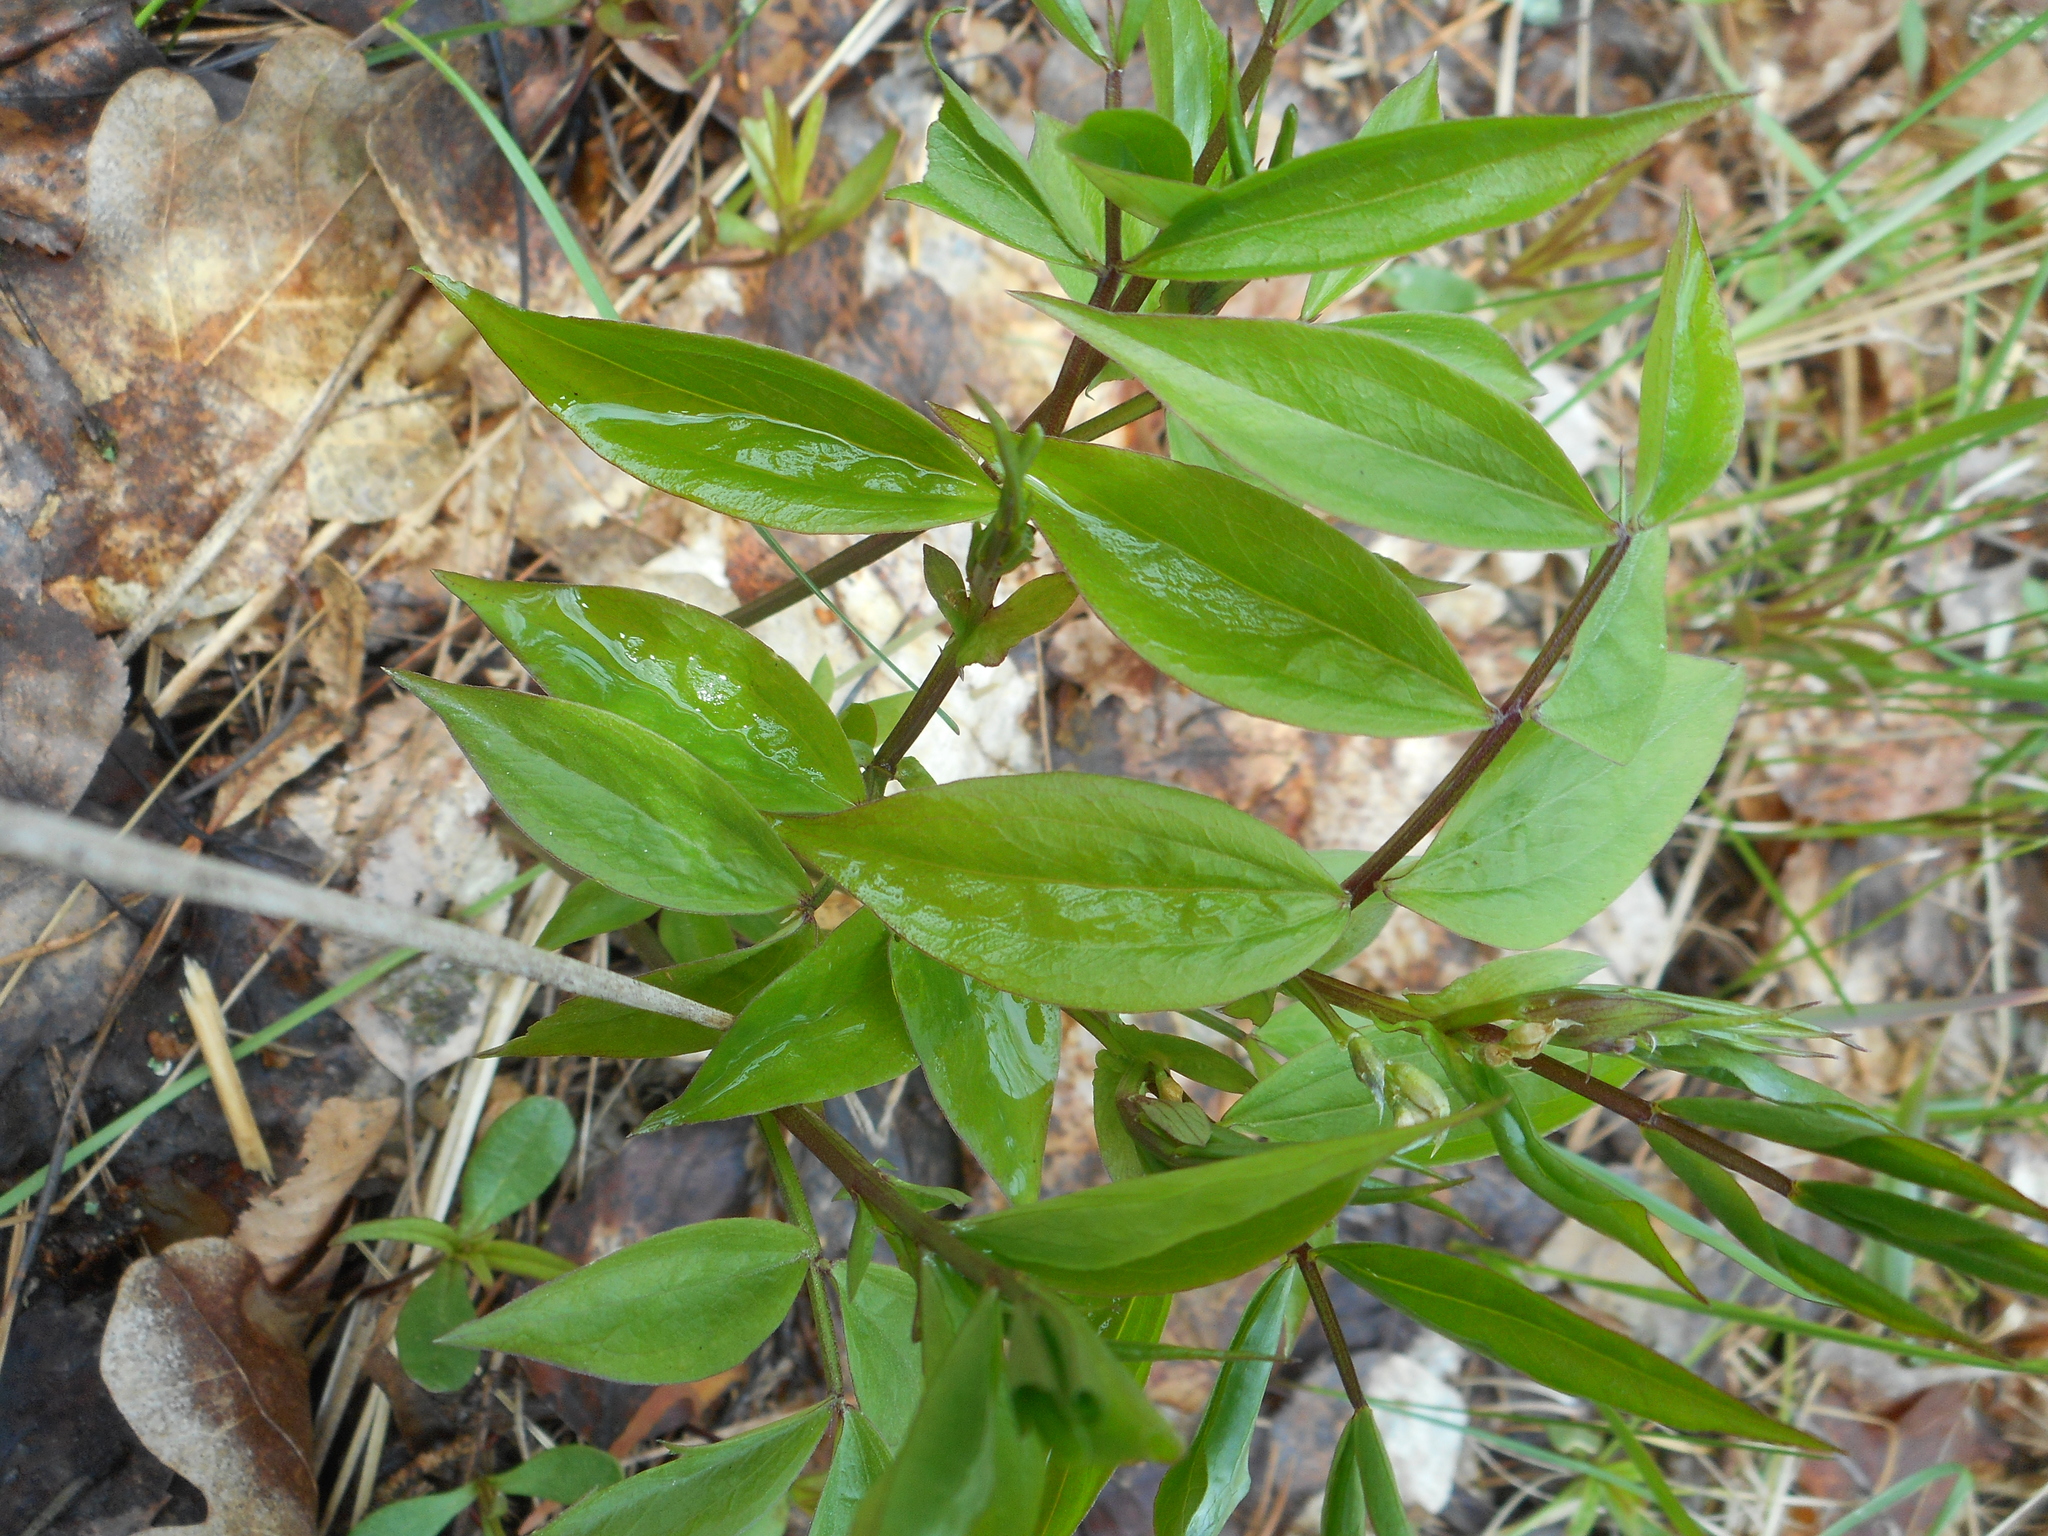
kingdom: Plantae
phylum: Tracheophyta
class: Magnoliopsida
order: Fabales
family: Fabaceae
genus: Lathyrus
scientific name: Lathyrus vernus
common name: Spring pea
